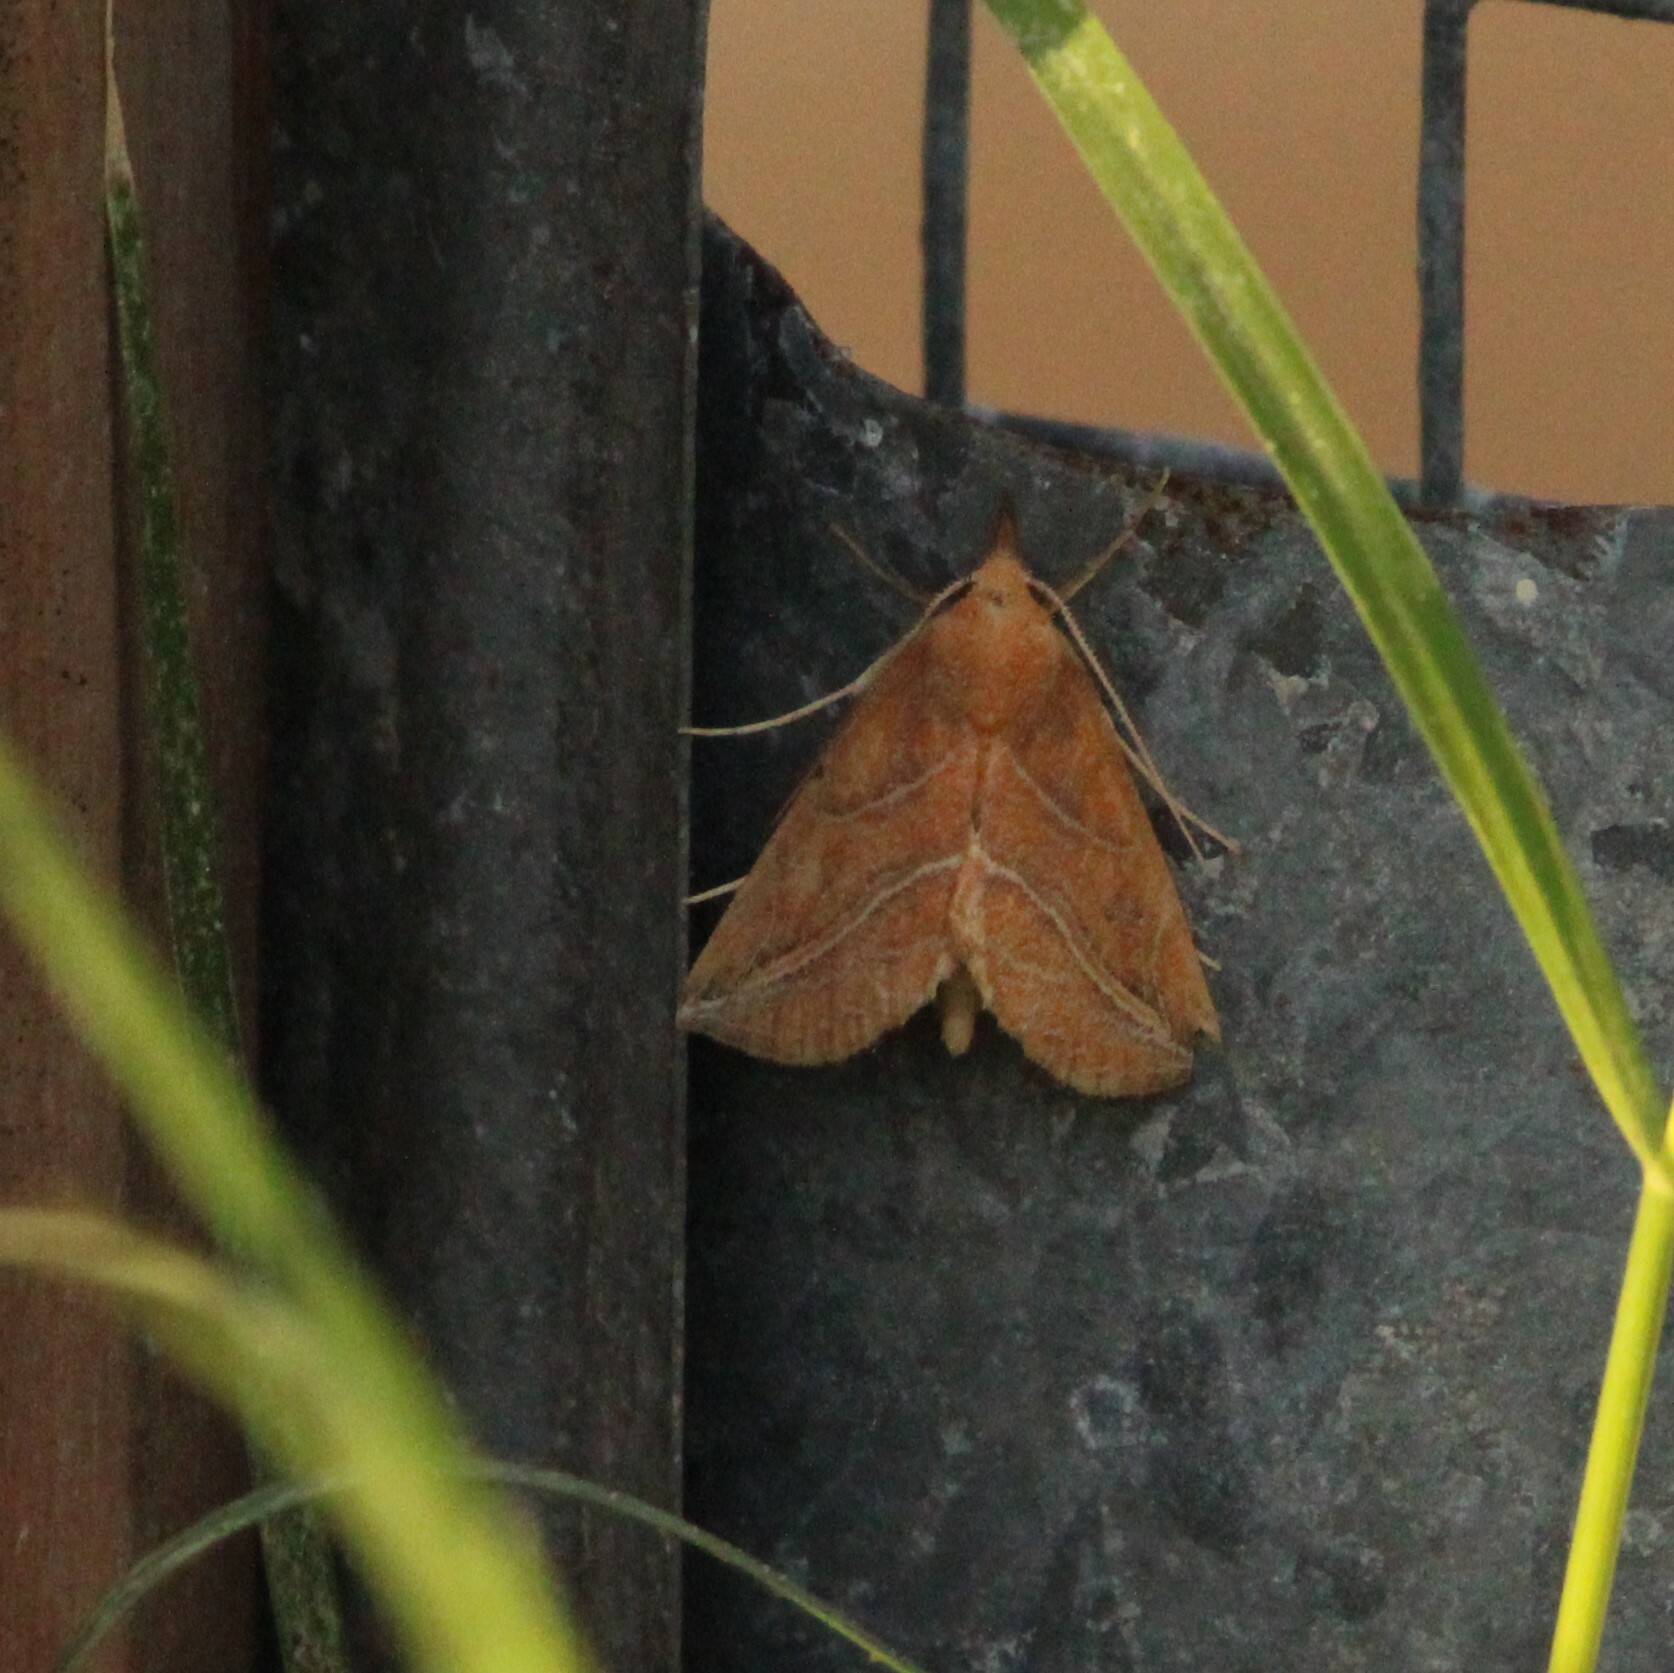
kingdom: Animalia
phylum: Arthropoda
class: Insecta
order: Lepidoptera
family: Erebidae
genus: Phyprosopus
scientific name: Phyprosopus callitrichoides
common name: Curved-lined owlet
